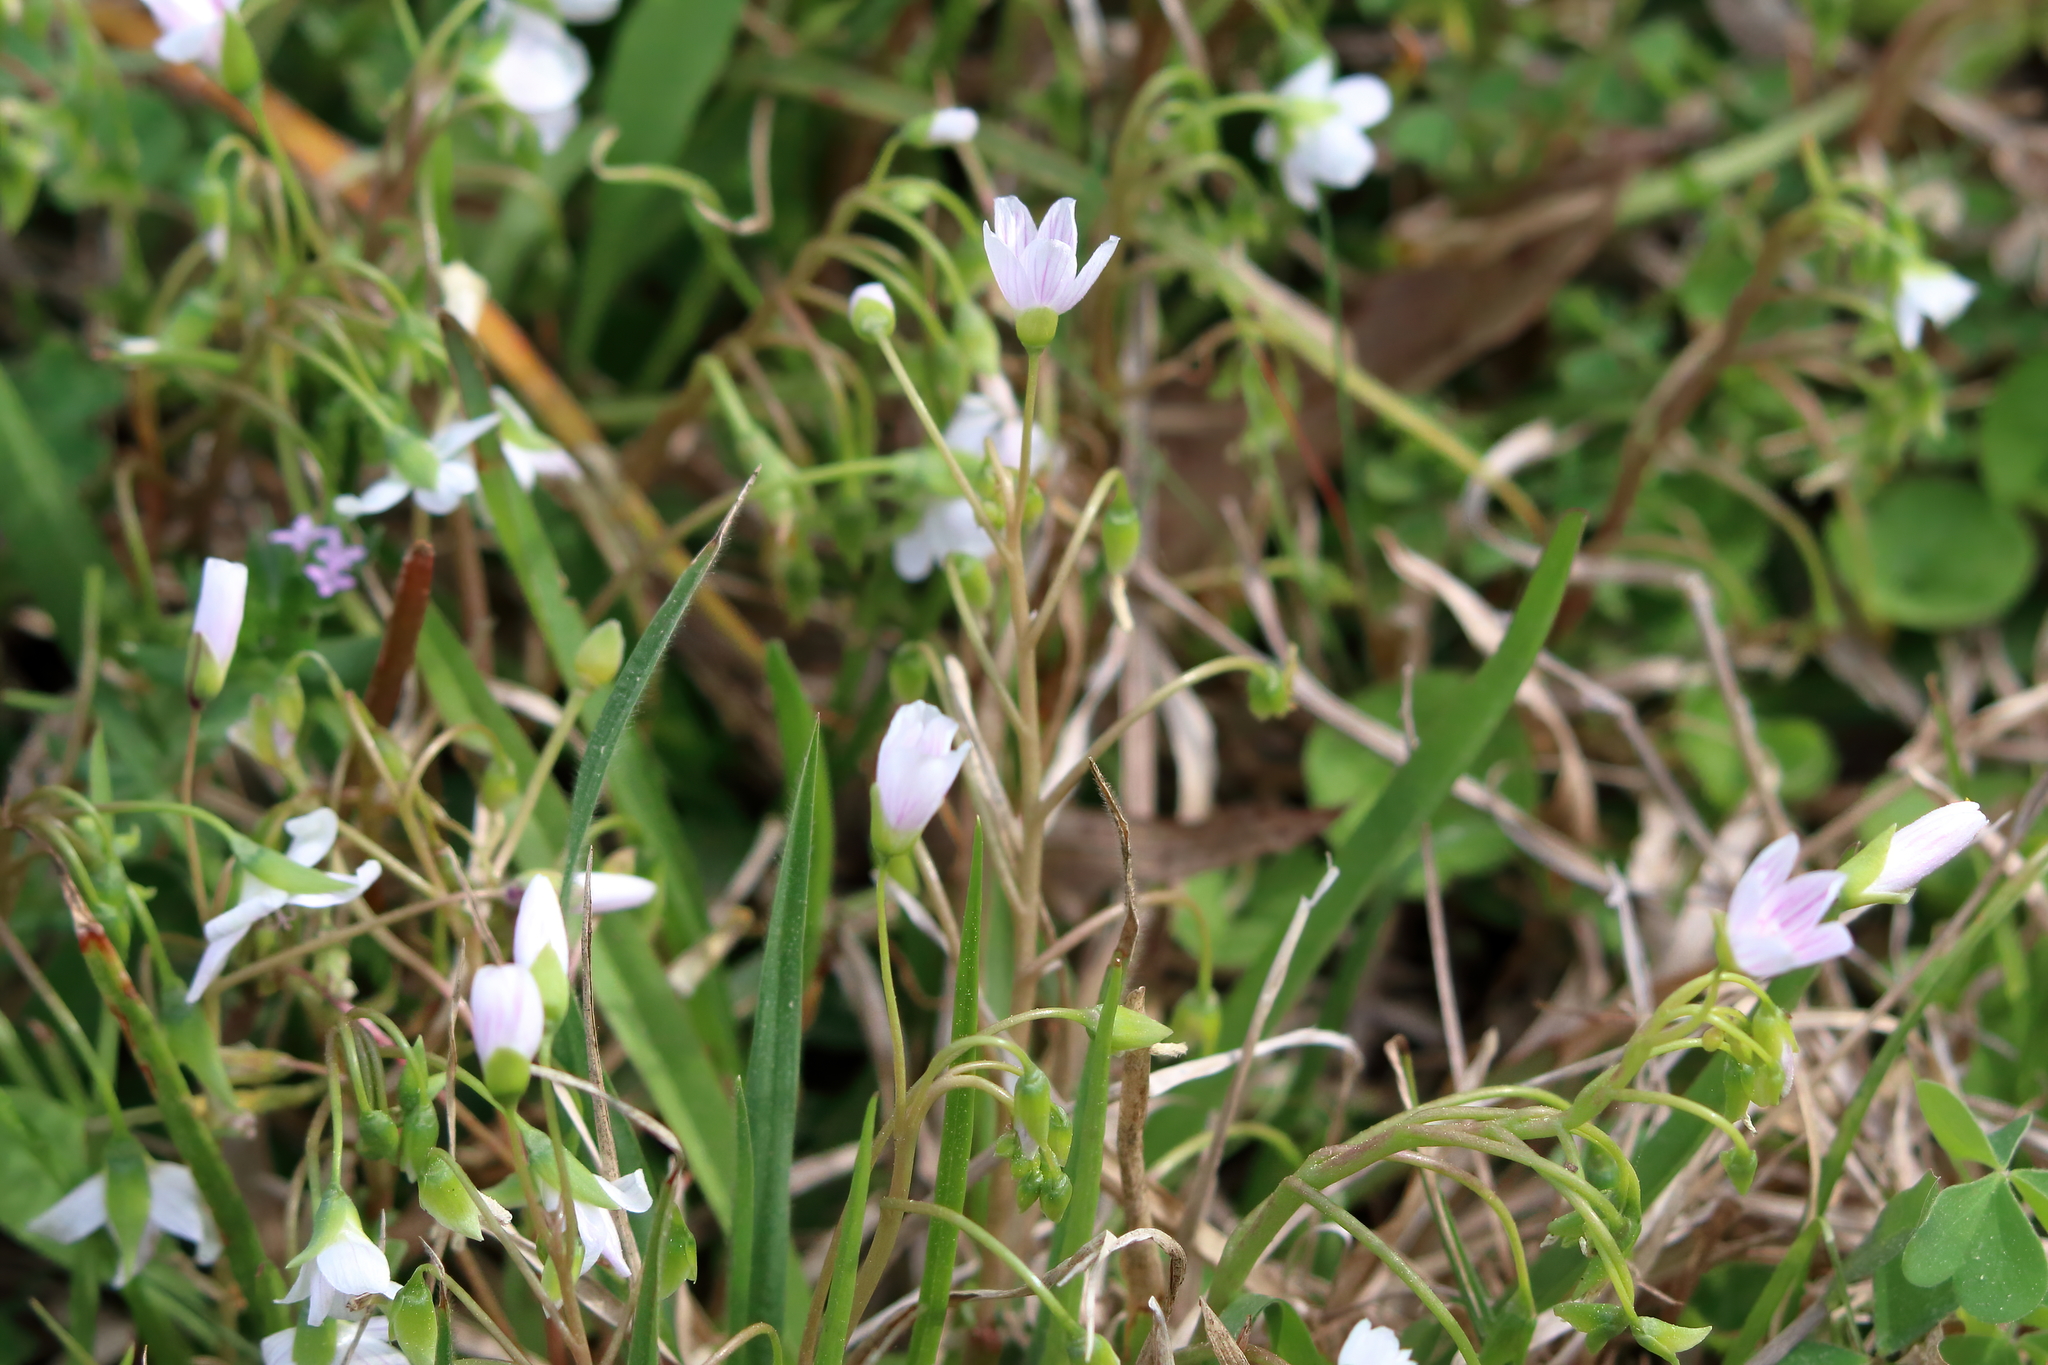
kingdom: Plantae
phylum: Tracheophyta
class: Magnoliopsida
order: Caryophyllales
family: Montiaceae
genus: Claytonia
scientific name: Claytonia virginica
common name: Virginia springbeauty
